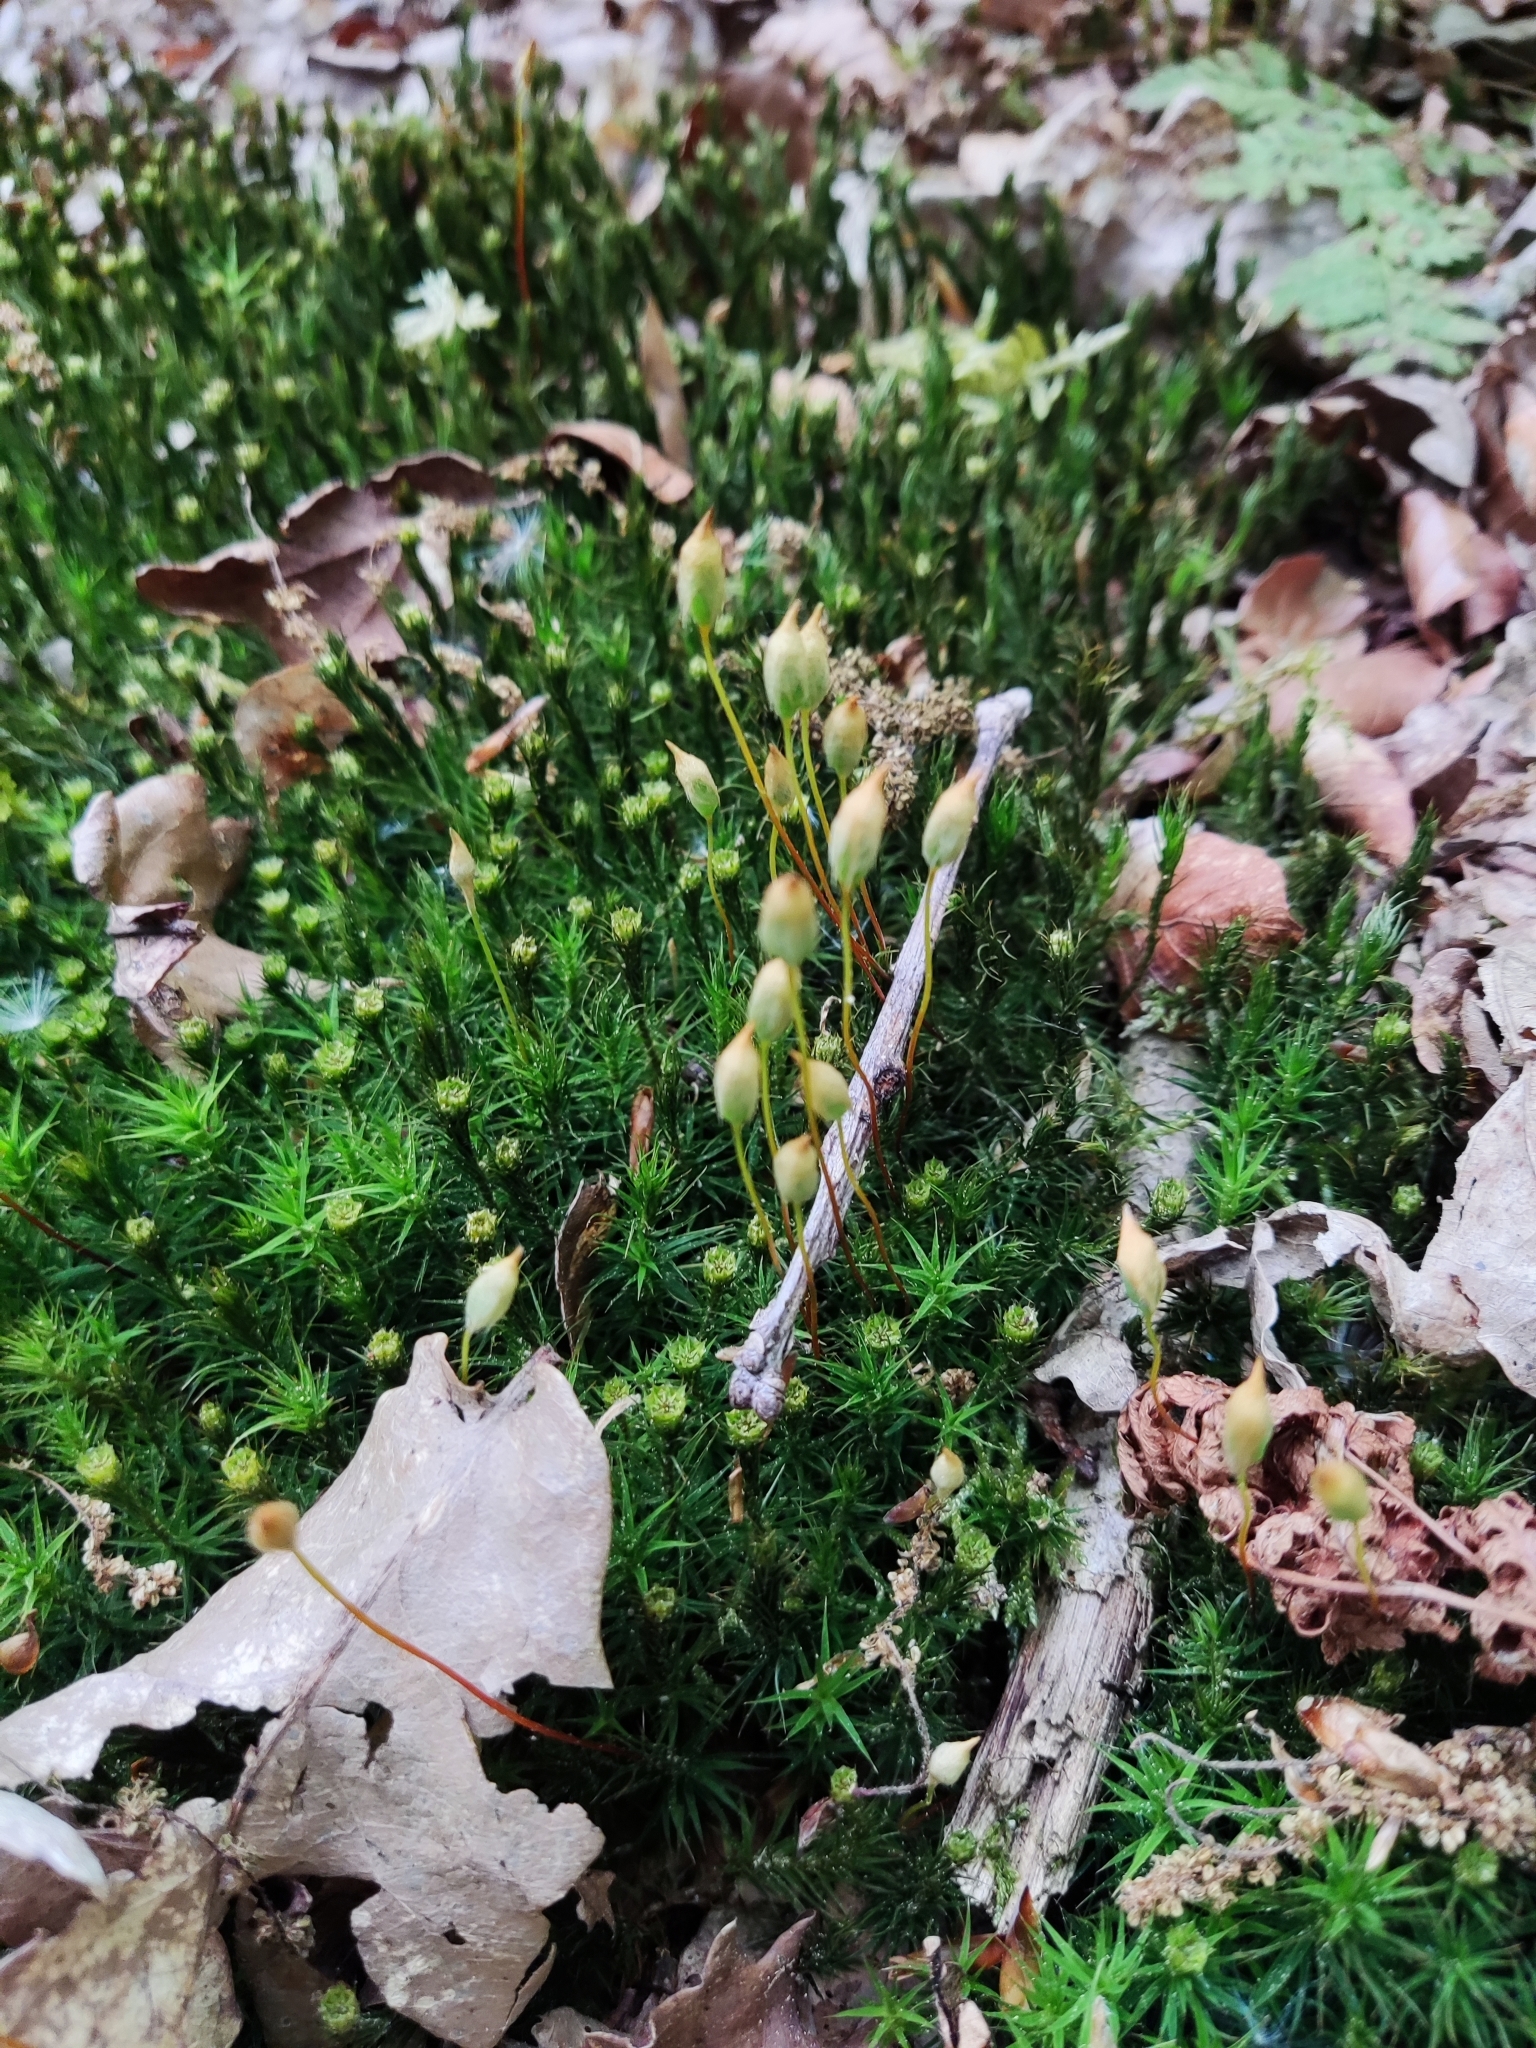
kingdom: Plantae
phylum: Bryophyta
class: Polytrichopsida
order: Polytrichales
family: Polytrichaceae
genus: Polytrichum
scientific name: Polytrichum formosum
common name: Bank haircap moss
